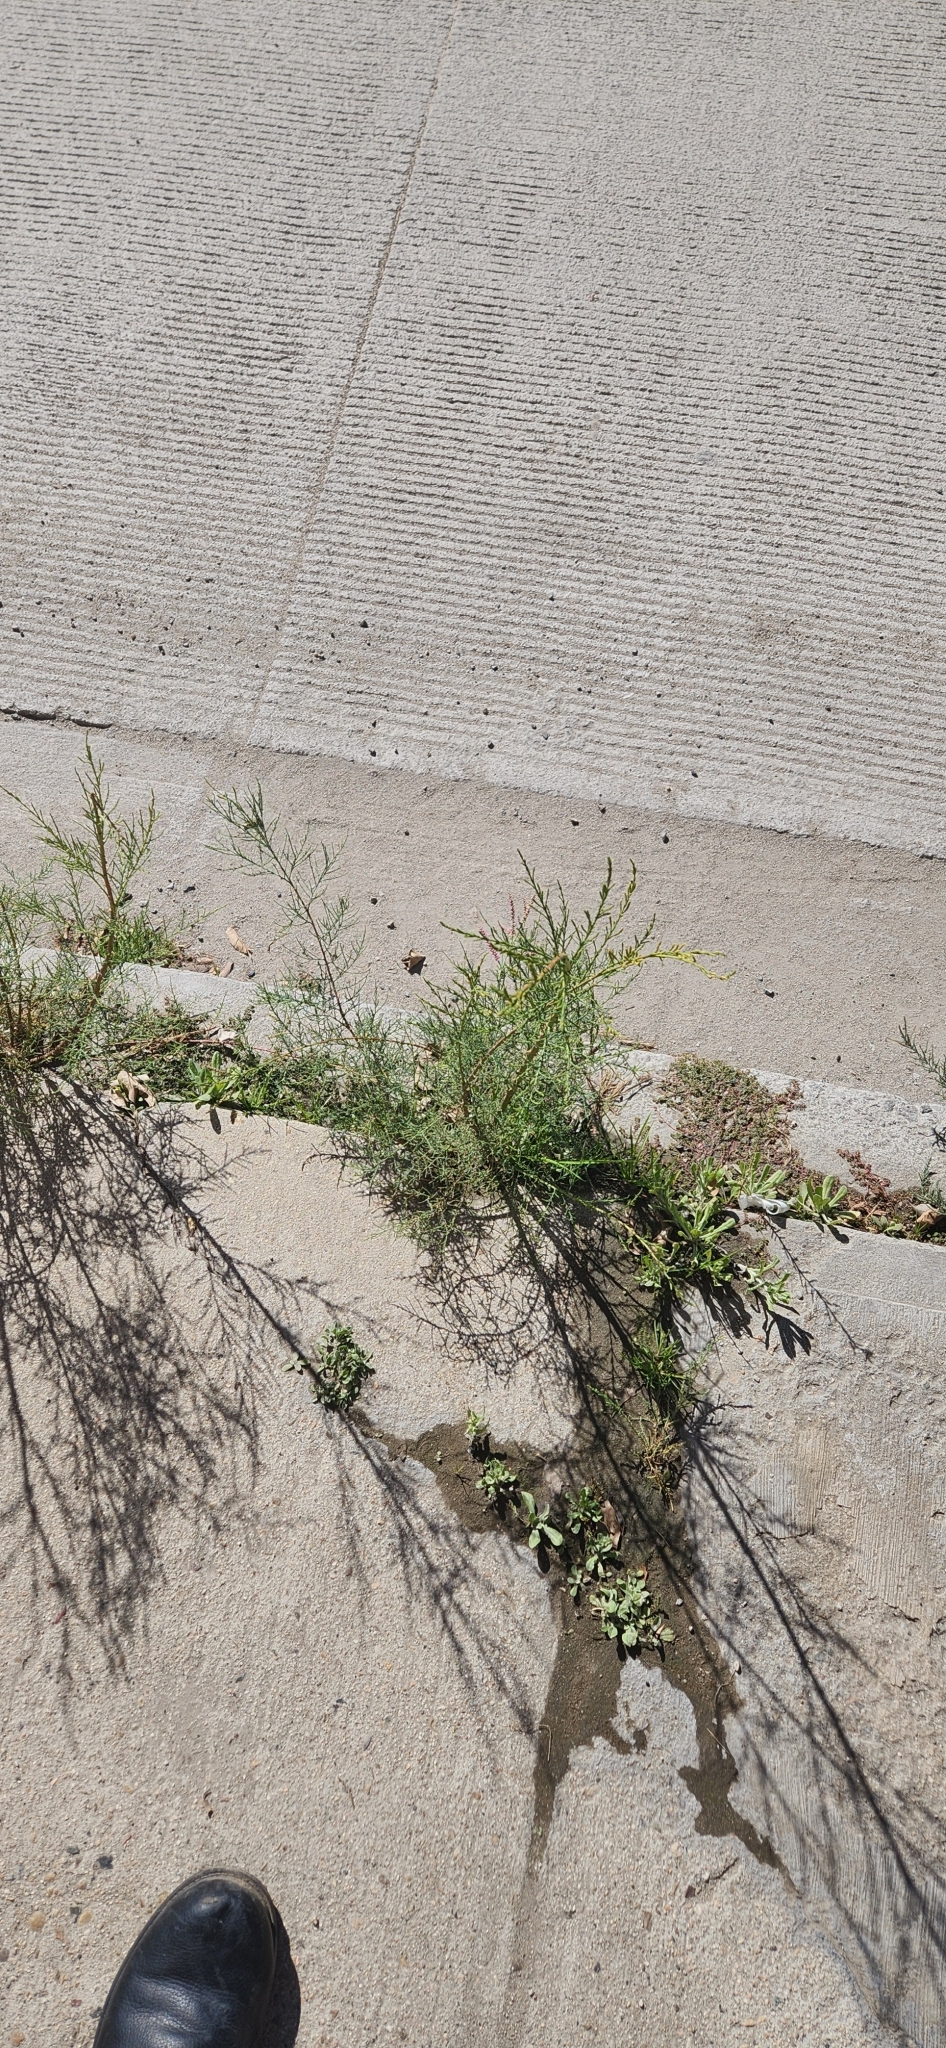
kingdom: Plantae
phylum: Tracheophyta
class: Magnoliopsida
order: Caryophyllales
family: Tamaricaceae
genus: Tamarix
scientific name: Tamarix
